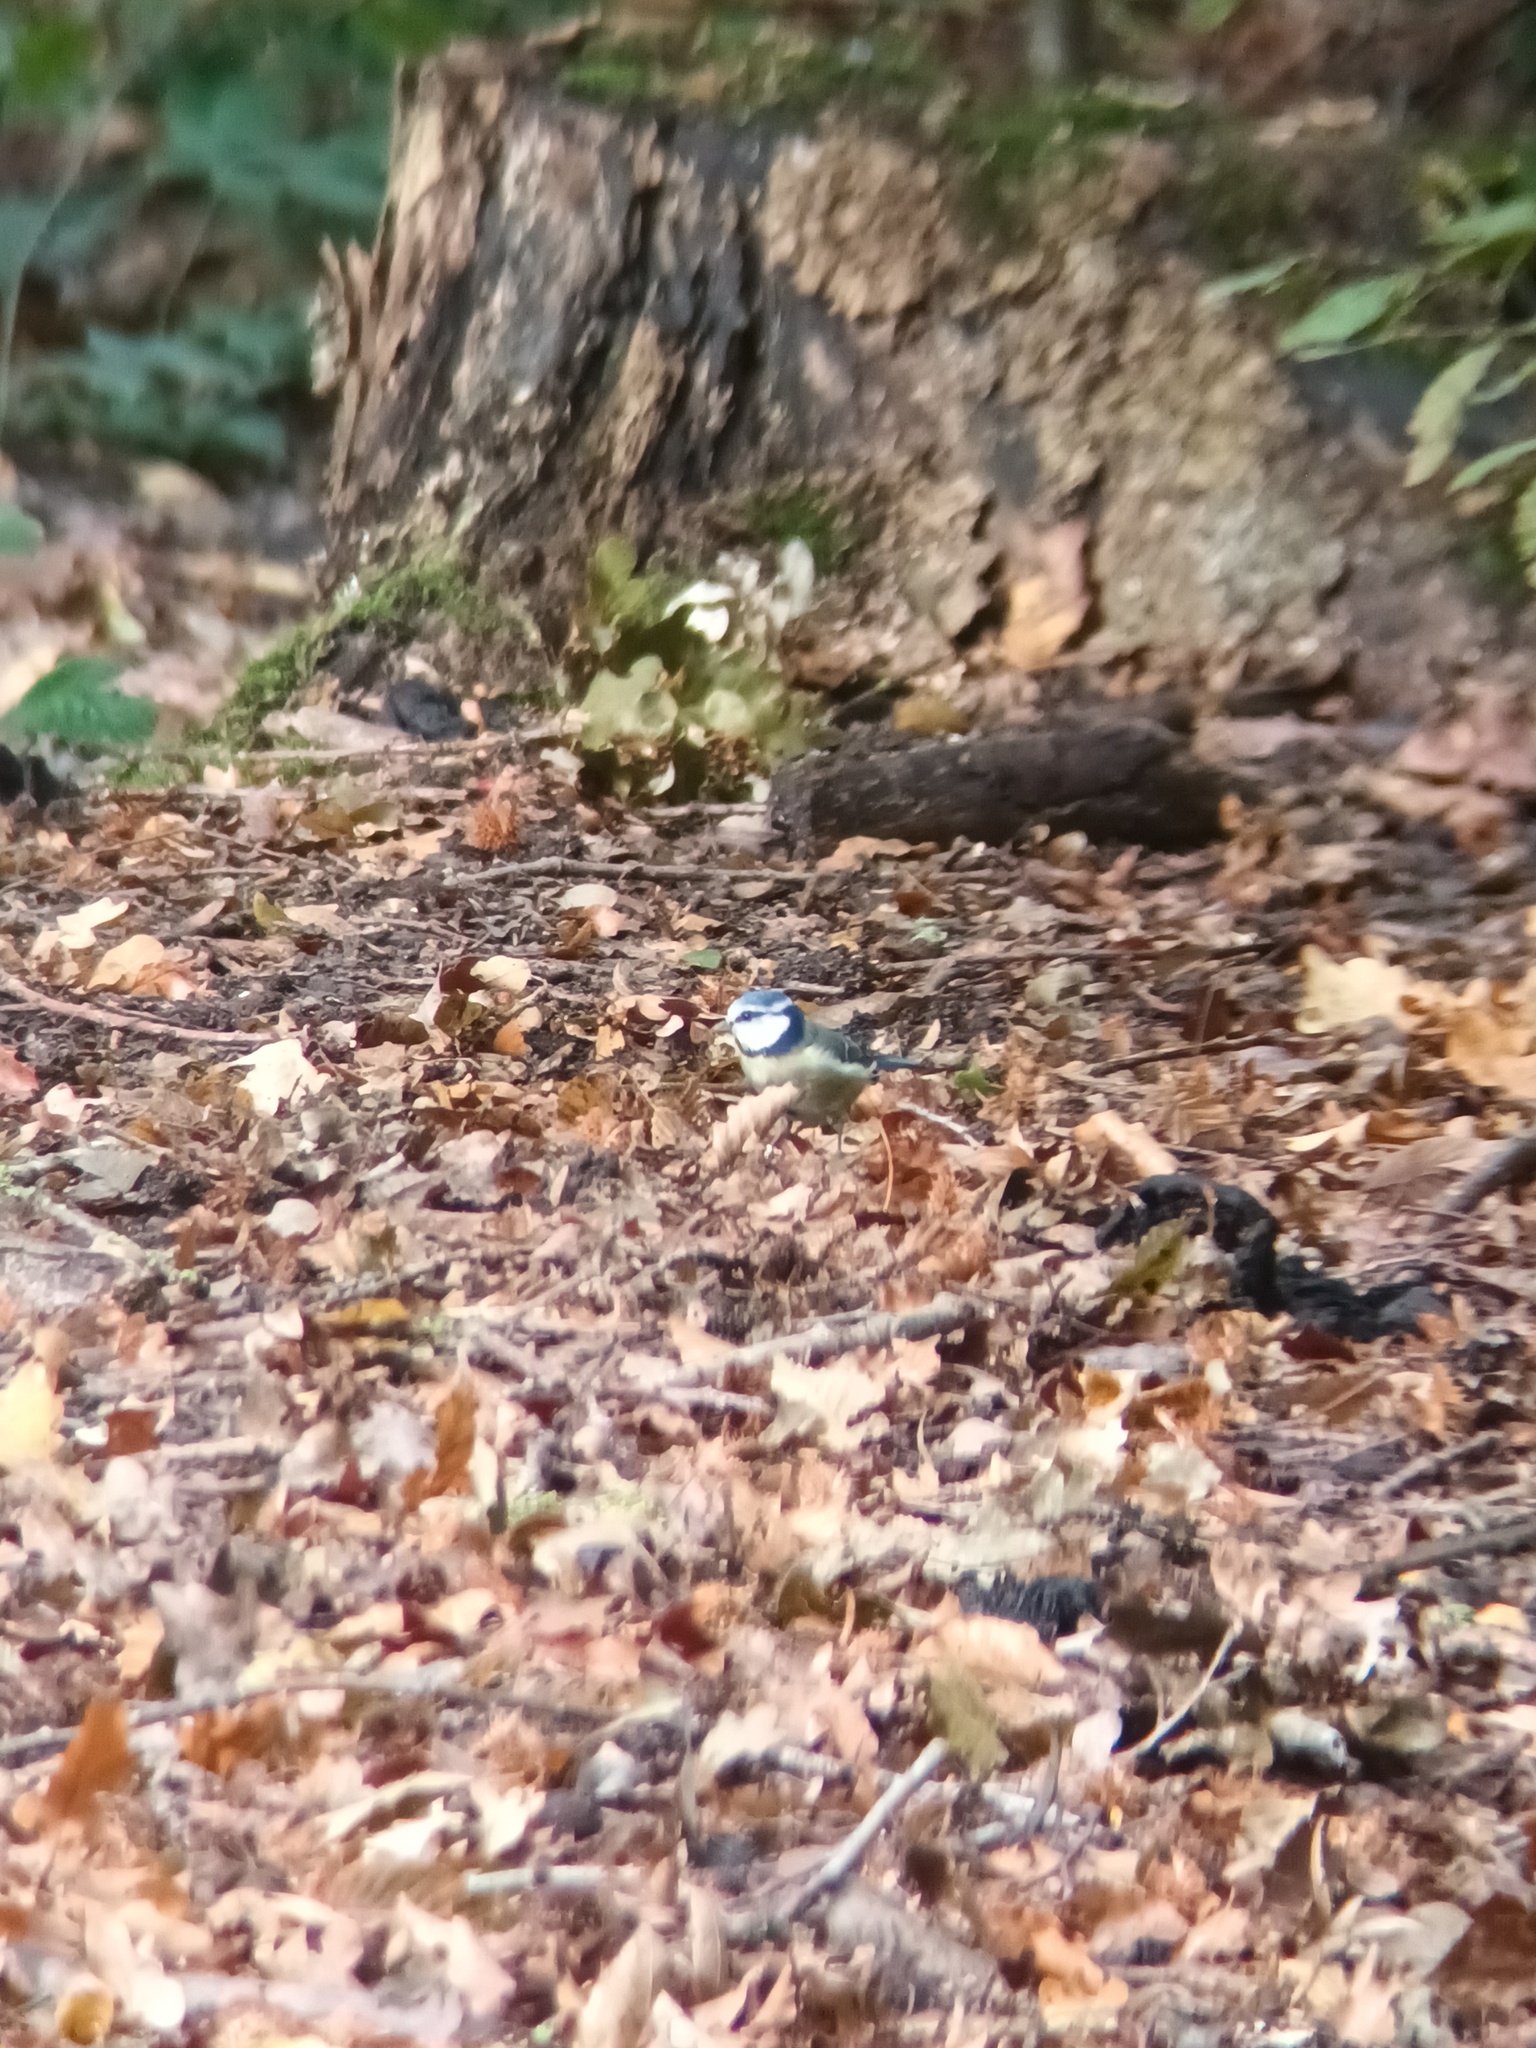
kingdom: Animalia
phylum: Chordata
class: Aves
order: Passeriformes
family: Paridae
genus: Cyanistes
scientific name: Cyanistes caeruleus
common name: Eurasian blue tit
